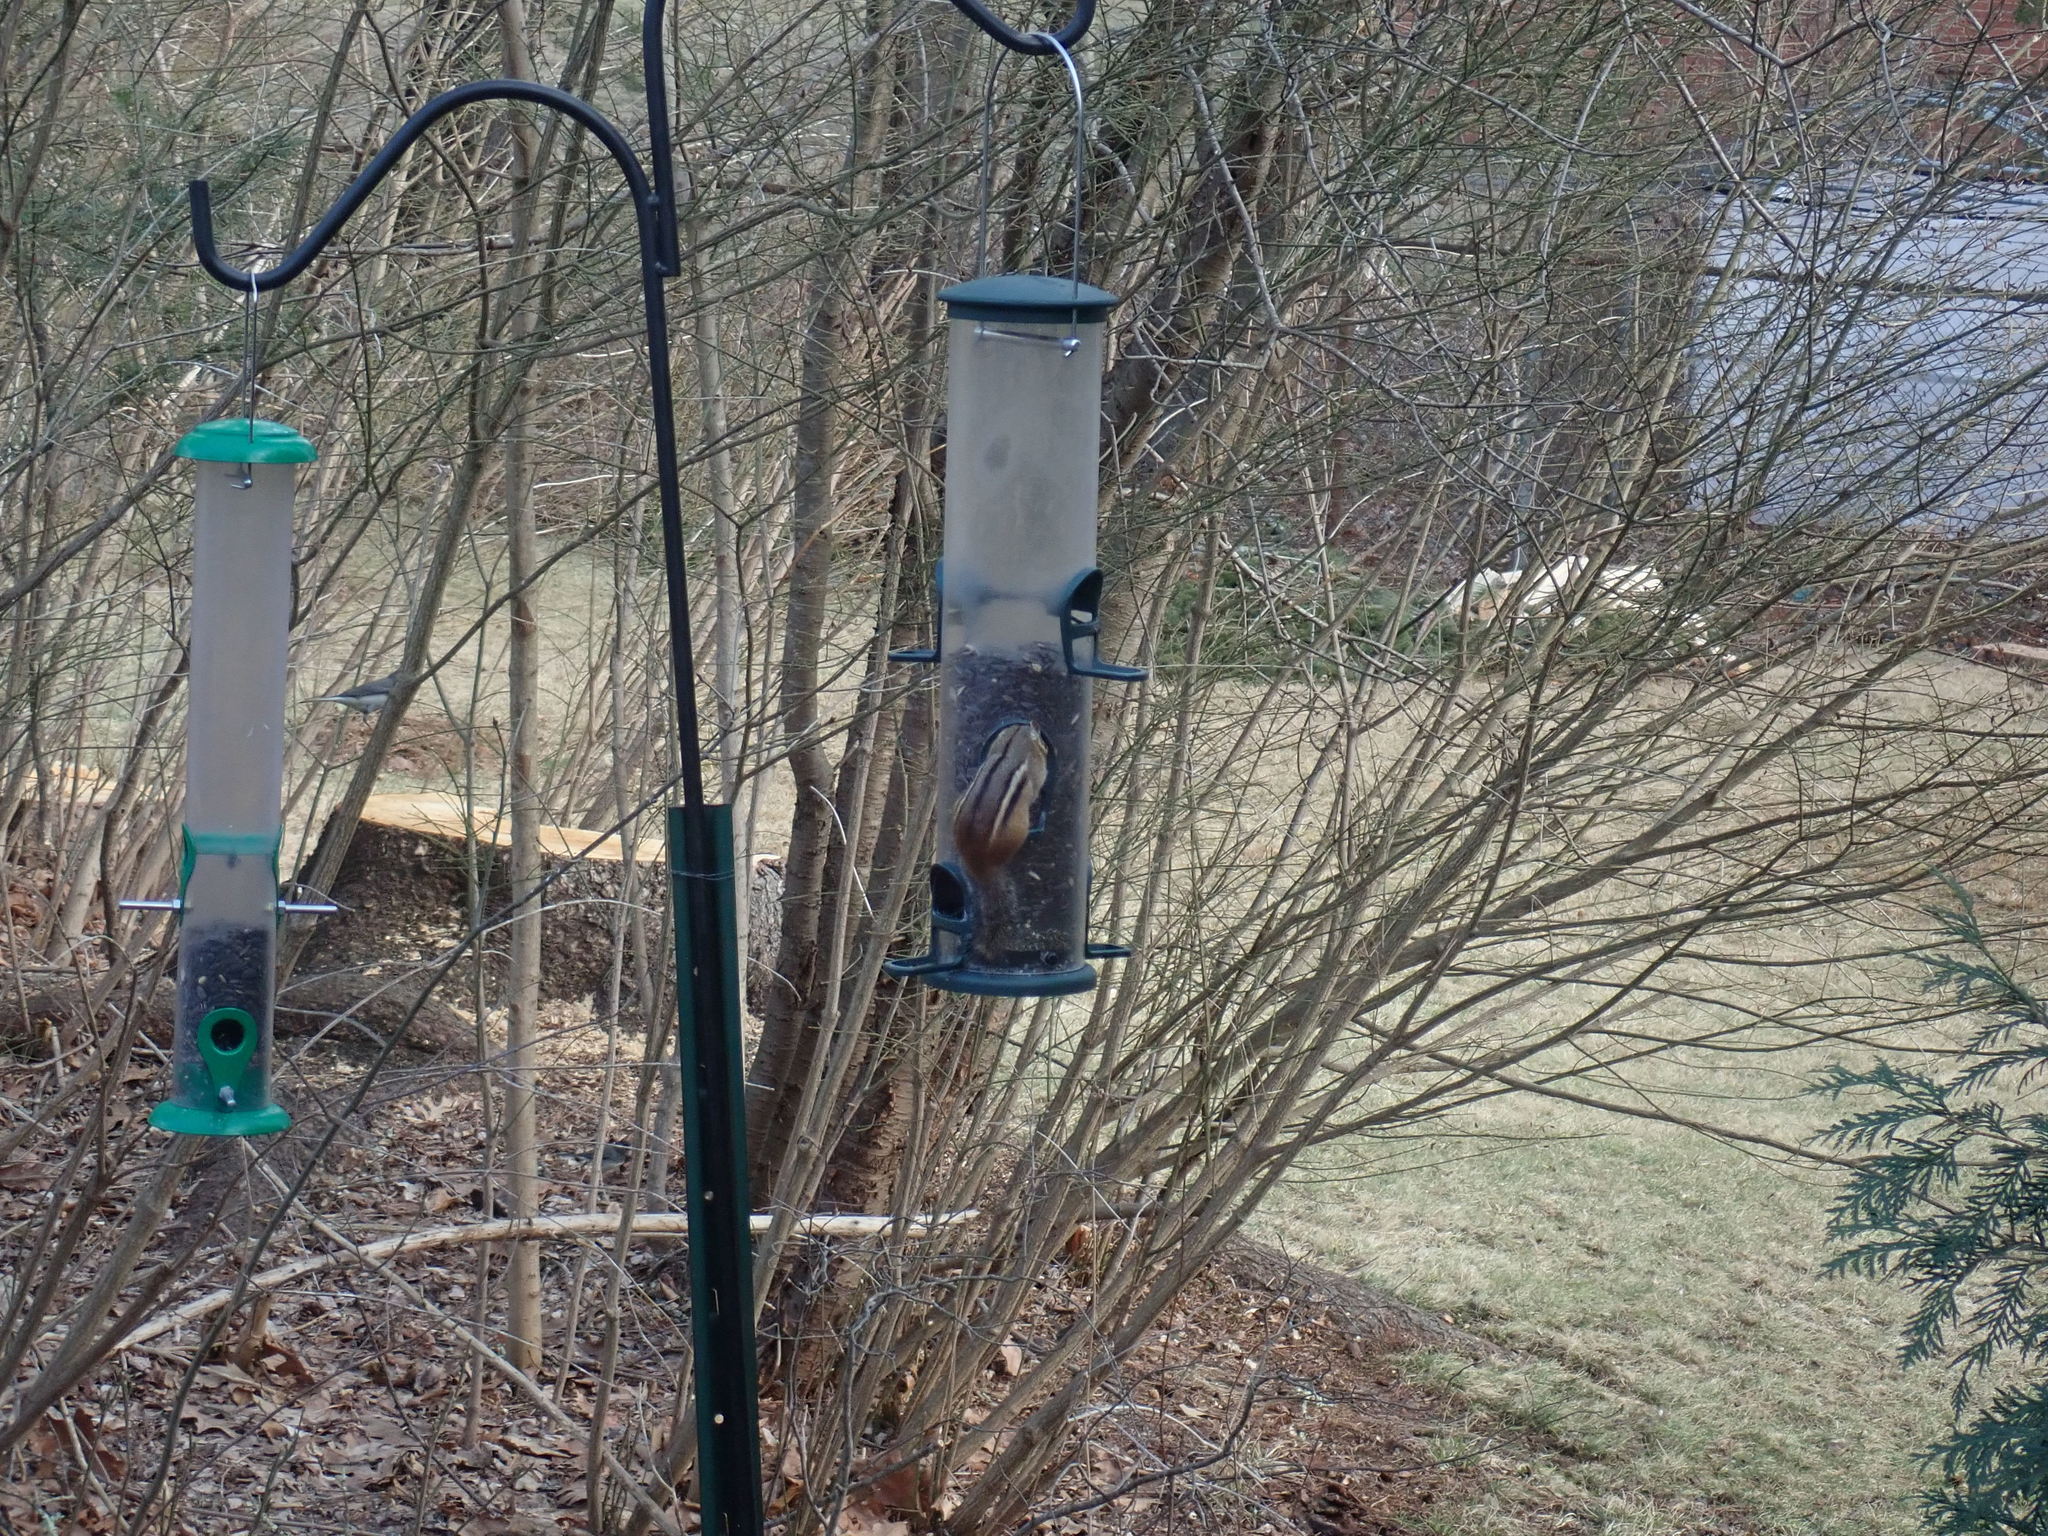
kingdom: Animalia
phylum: Chordata
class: Mammalia
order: Rodentia
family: Sciuridae
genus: Tamias
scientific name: Tamias striatus
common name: Eastern chipmunk
